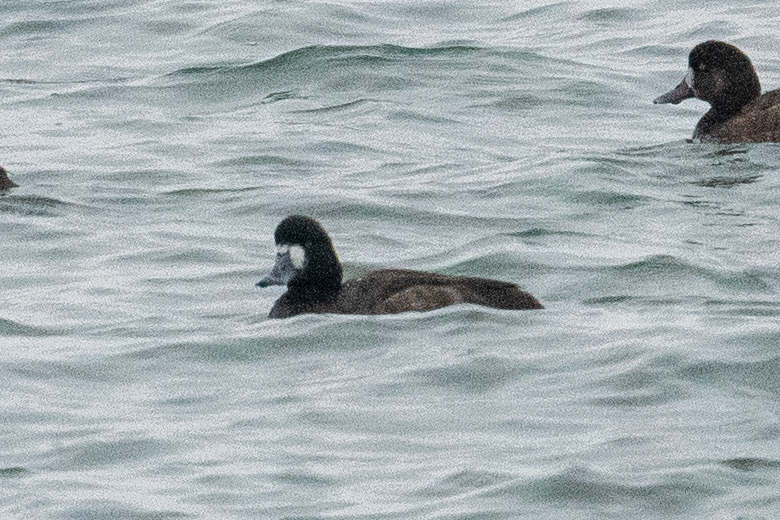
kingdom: Animalia
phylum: Chordata
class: Aves
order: Anseriformes
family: Anatidae
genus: Aythya
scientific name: Aythya marila
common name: Greater scaup
